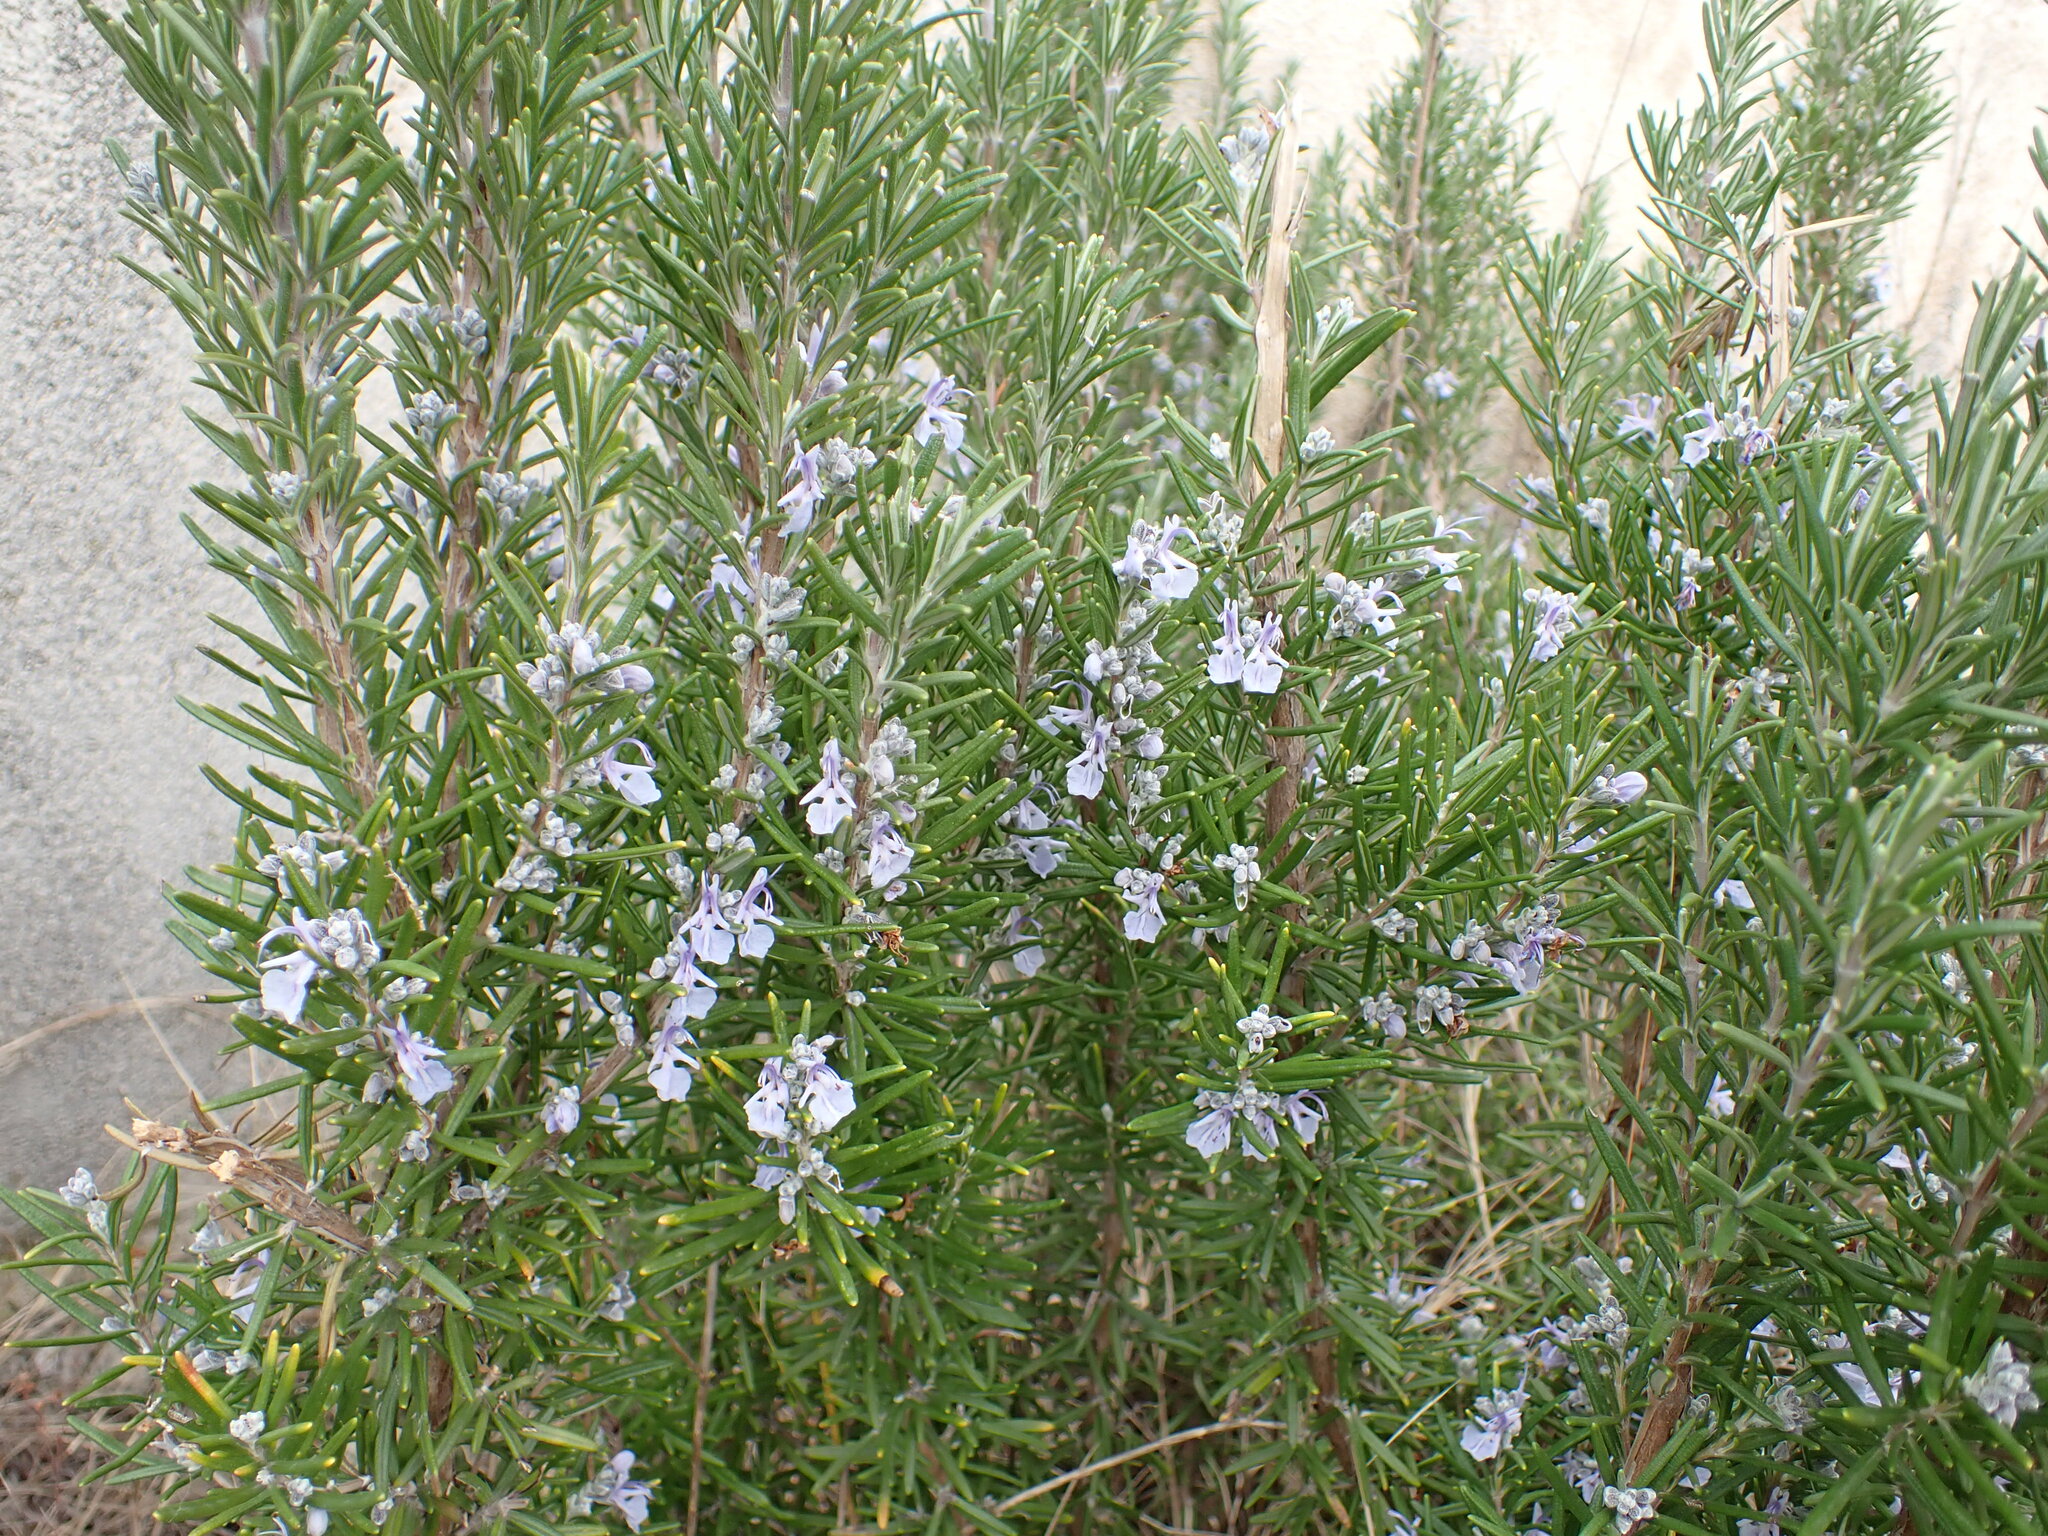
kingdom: Plantae
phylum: Tracheophyta
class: Magnoliopsida
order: Lamiales
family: Lamiaceae
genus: Salvia
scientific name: Salvia rosmarinus
